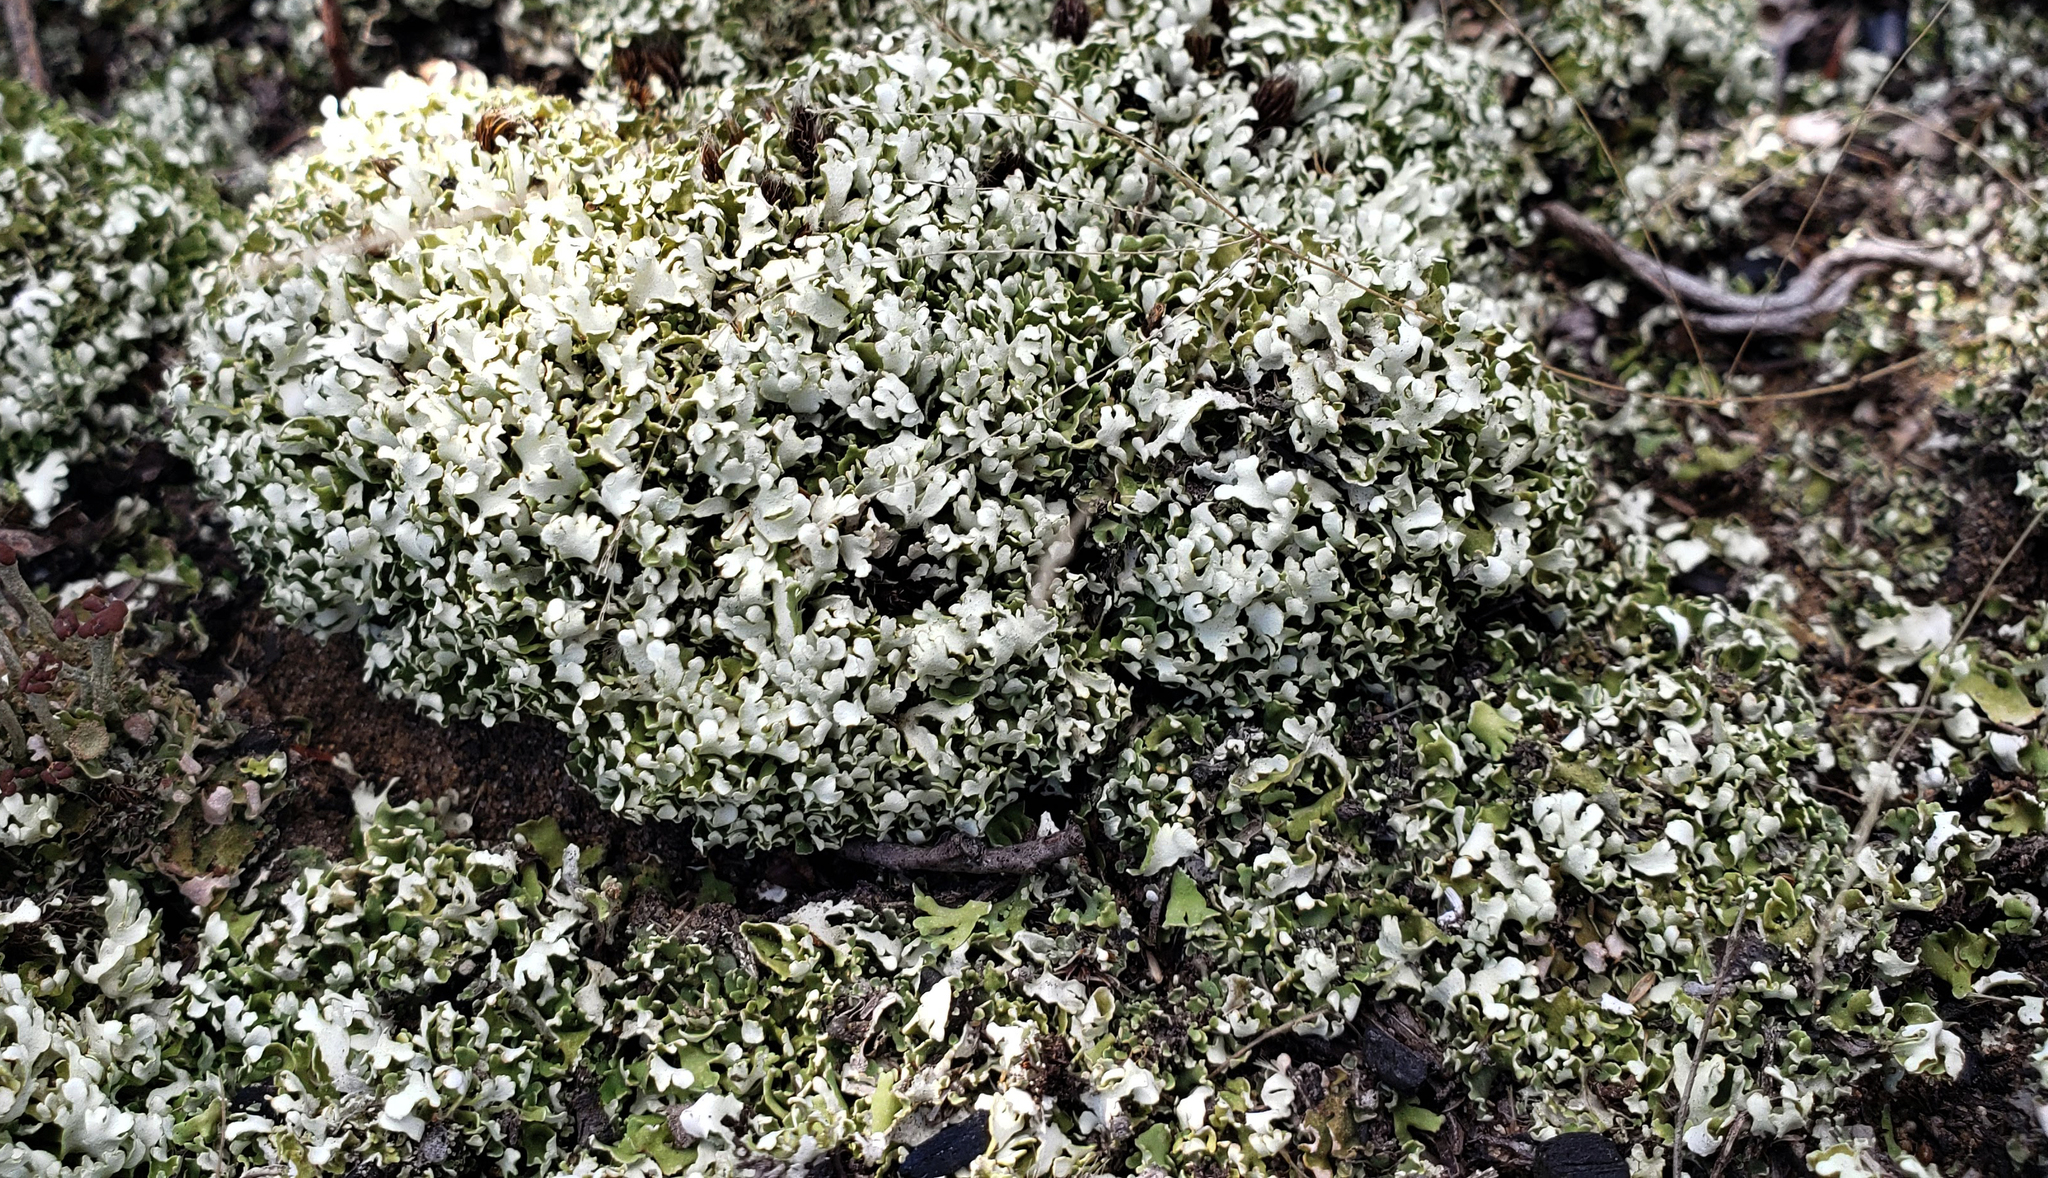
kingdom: Fungi
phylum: Ascomycota
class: Lecanoromycetes
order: Lecanorales
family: Cladoniaceae
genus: Cladonia
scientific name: Cladonia apodocarpa
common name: Stalkless cladonia
